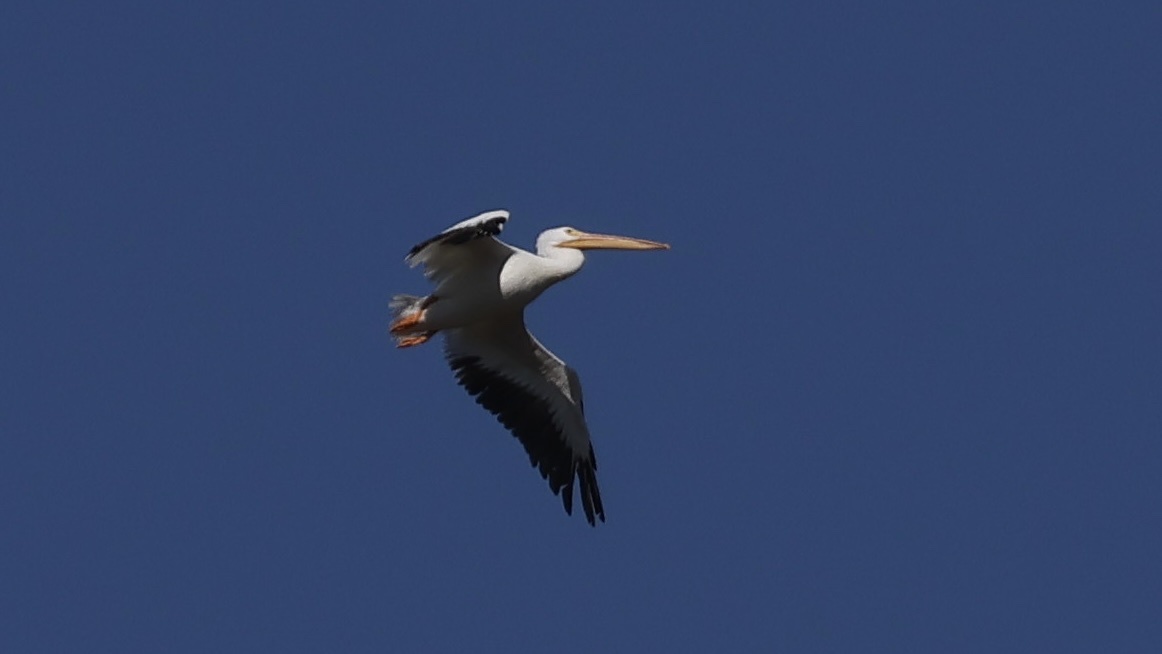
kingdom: Animalia
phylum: Chordata
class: Aves
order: Pelecaniformes
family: Pelecanidae
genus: Pelecanus
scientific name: Pelecanus erythrorhynchos
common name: American white pelican
